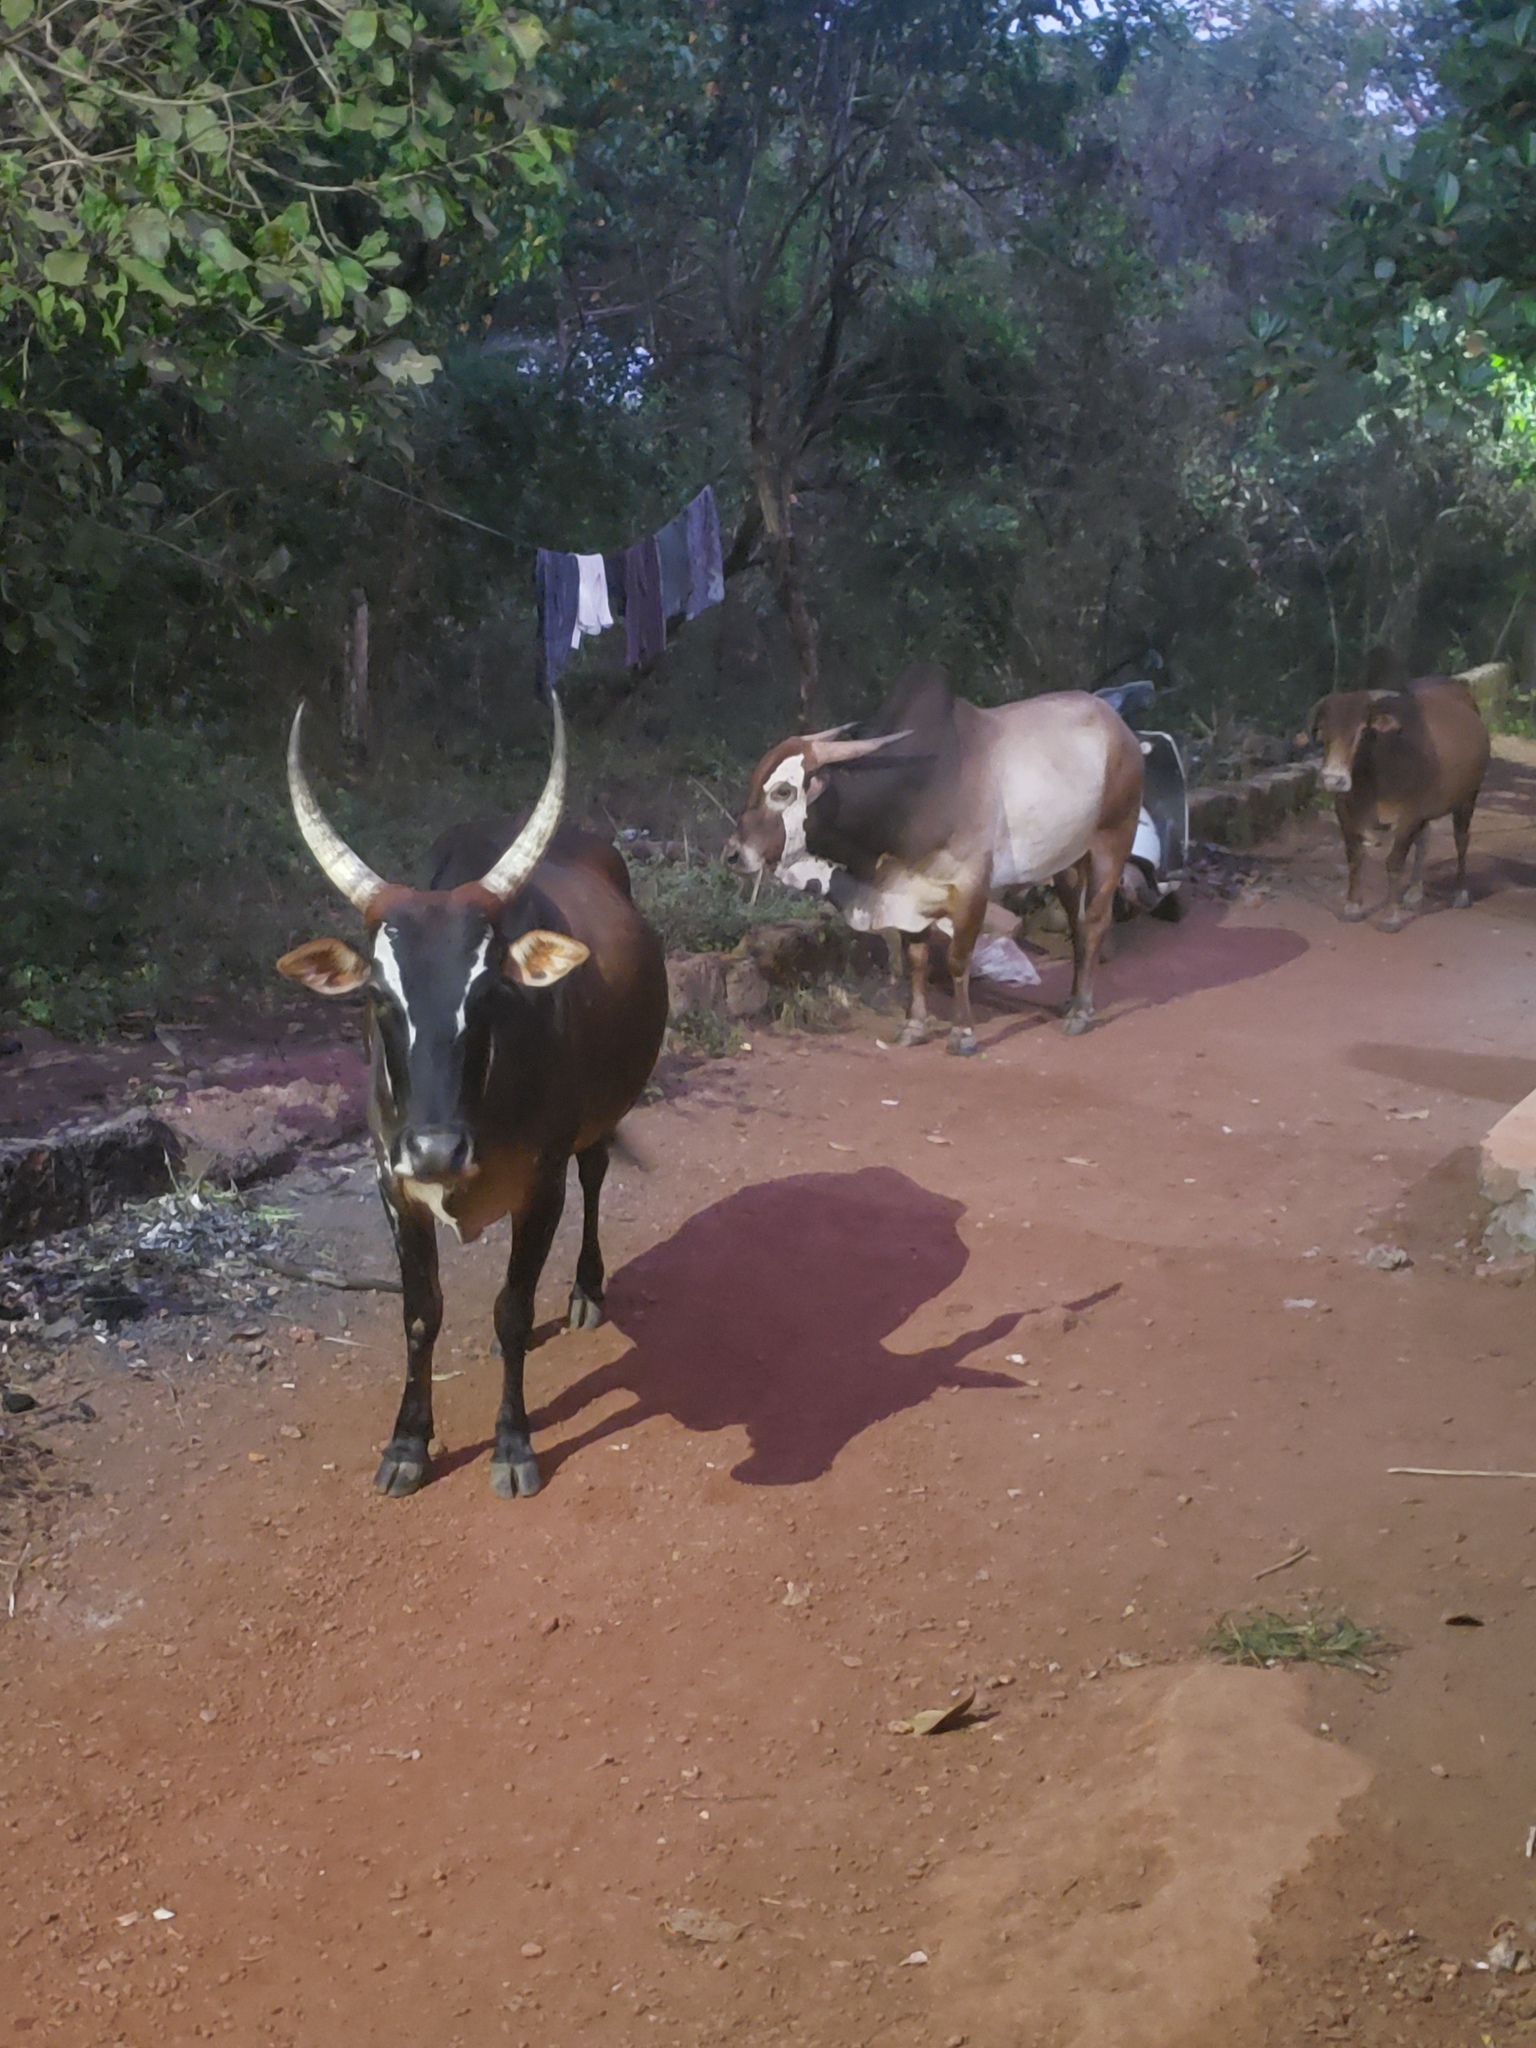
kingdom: Animalia
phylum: Chordata
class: Mammalia
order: Artiodactyla
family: Bovidae
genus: Bos
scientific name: Bos taurus
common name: Domesticated cattle
